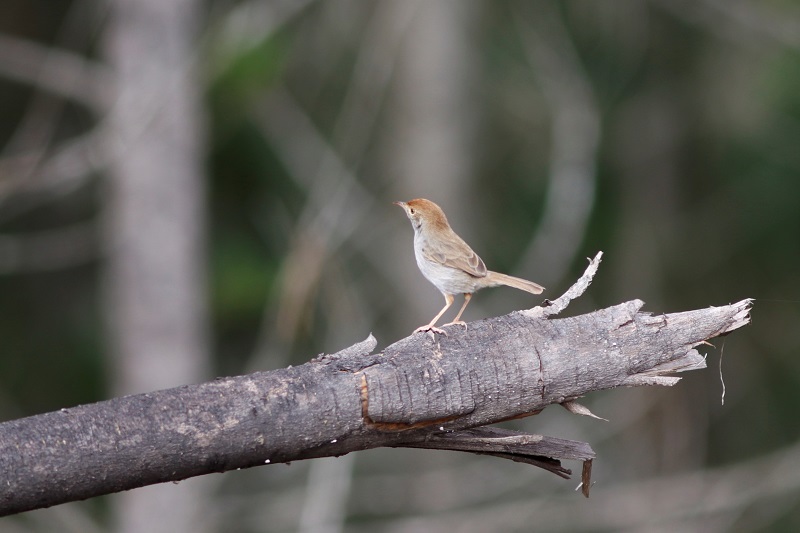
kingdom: Animalia
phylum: Chordata
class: Aves
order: Passeriformes
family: Cisticolidae
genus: Cisticola
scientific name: Cisticola fulvicapilla
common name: Neddicky
